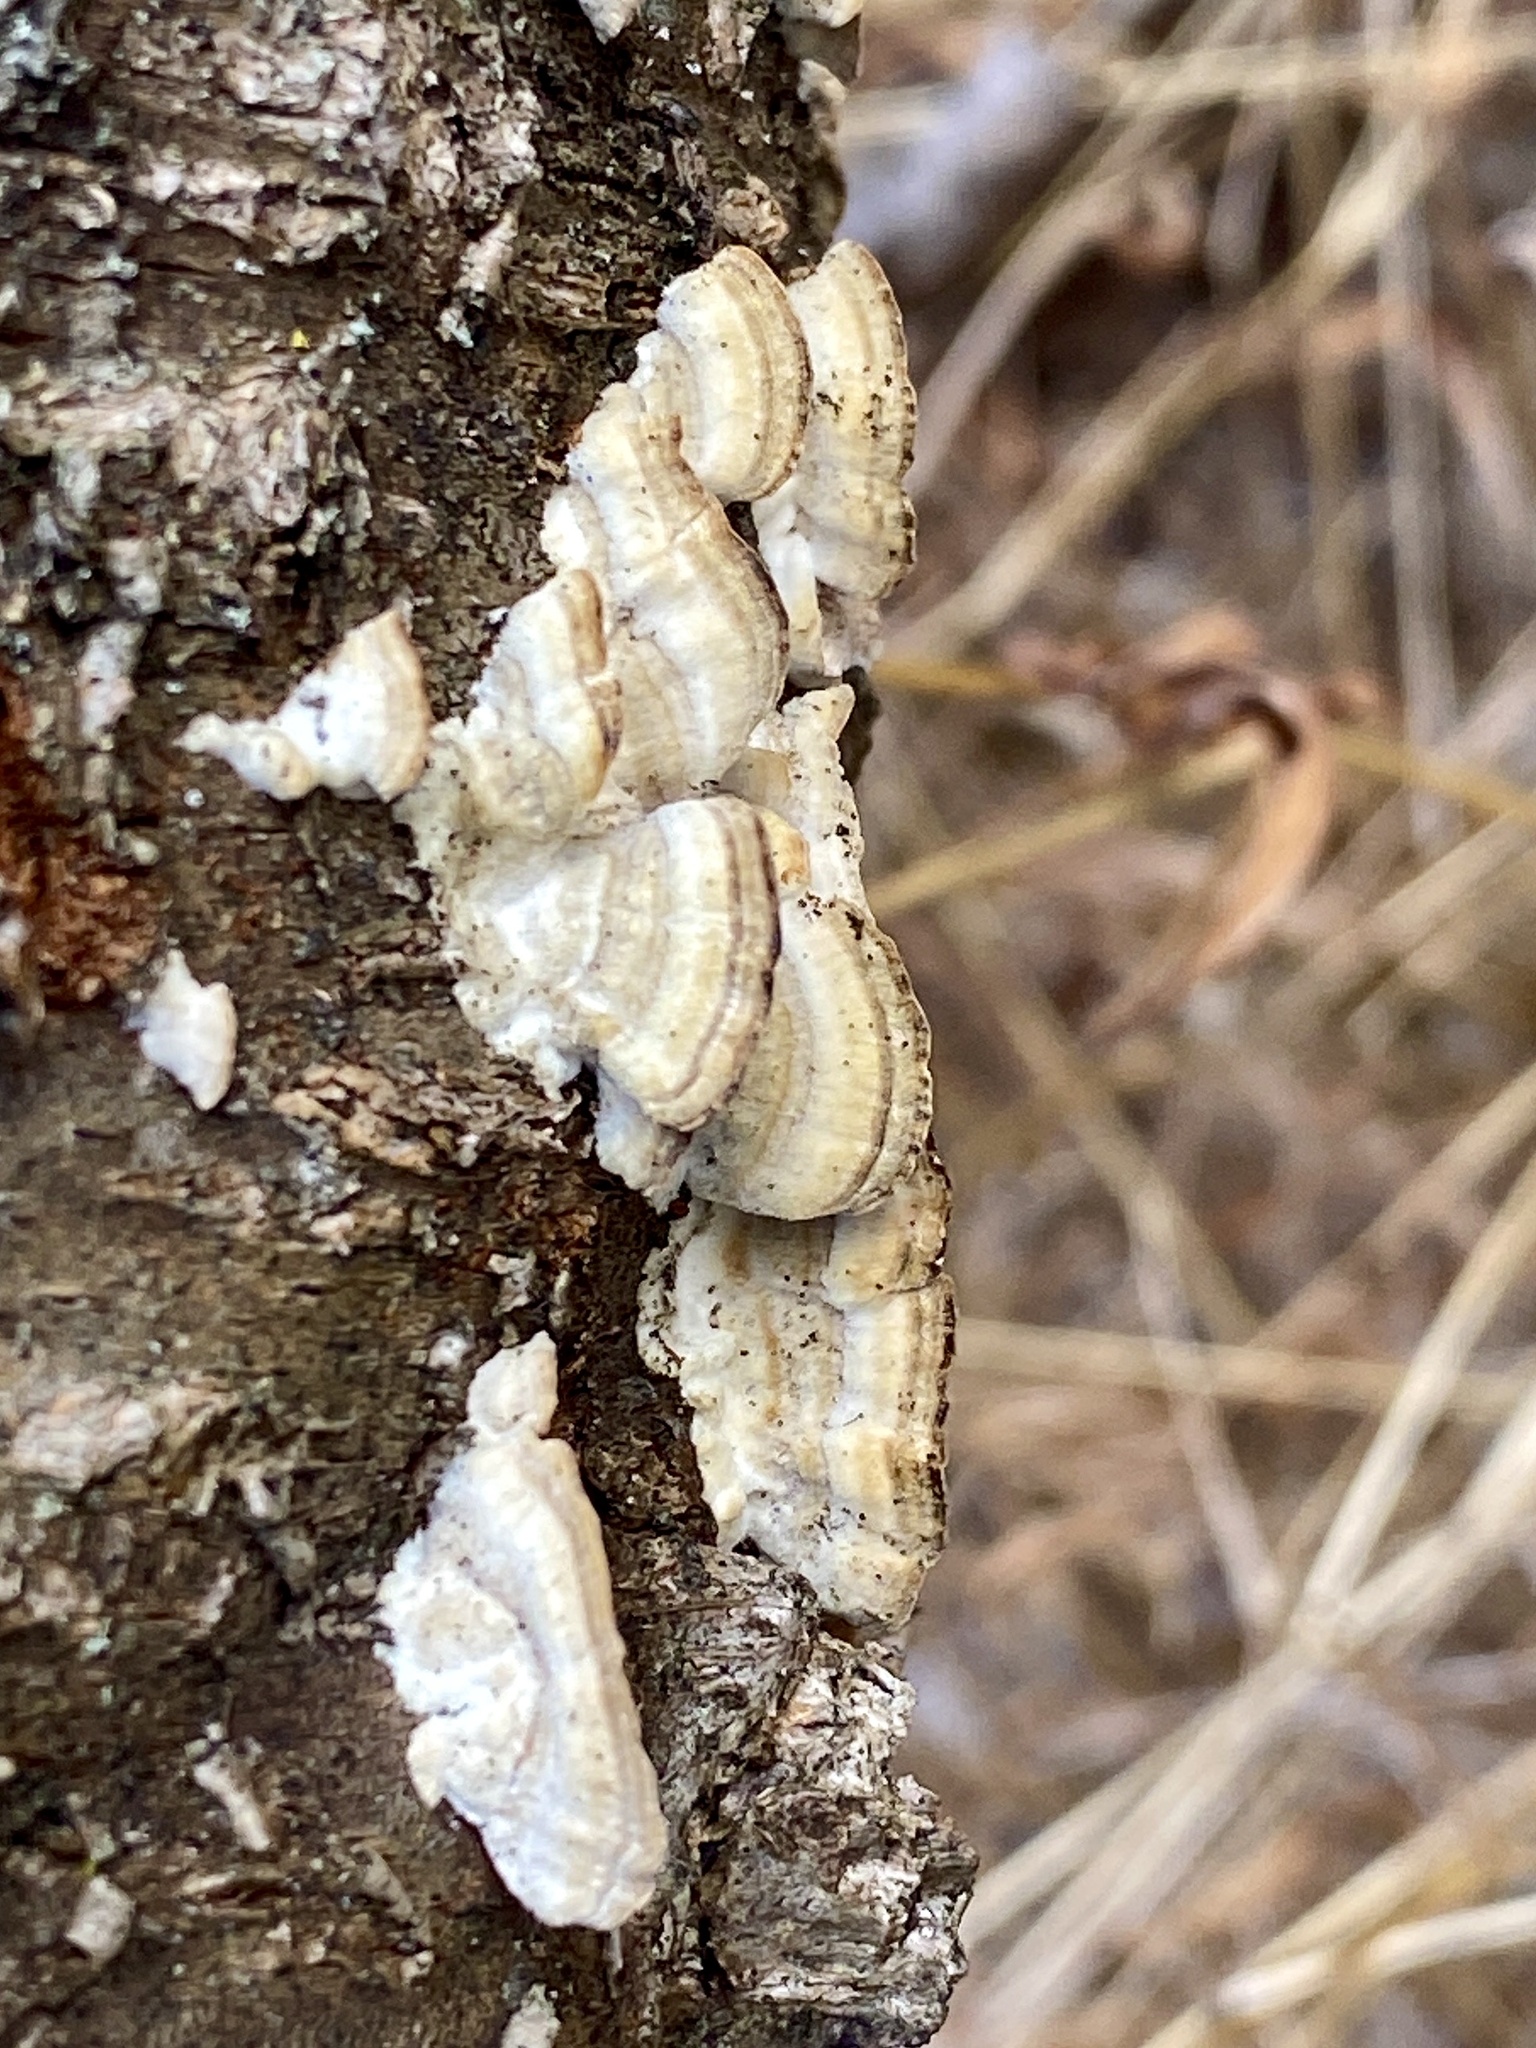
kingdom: Fungi
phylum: Basidiomycota
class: Agaricomycetes
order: Hymenochaetales
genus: Trichaptum
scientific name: Trichaptum biforme
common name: Violet-toothed polypore
